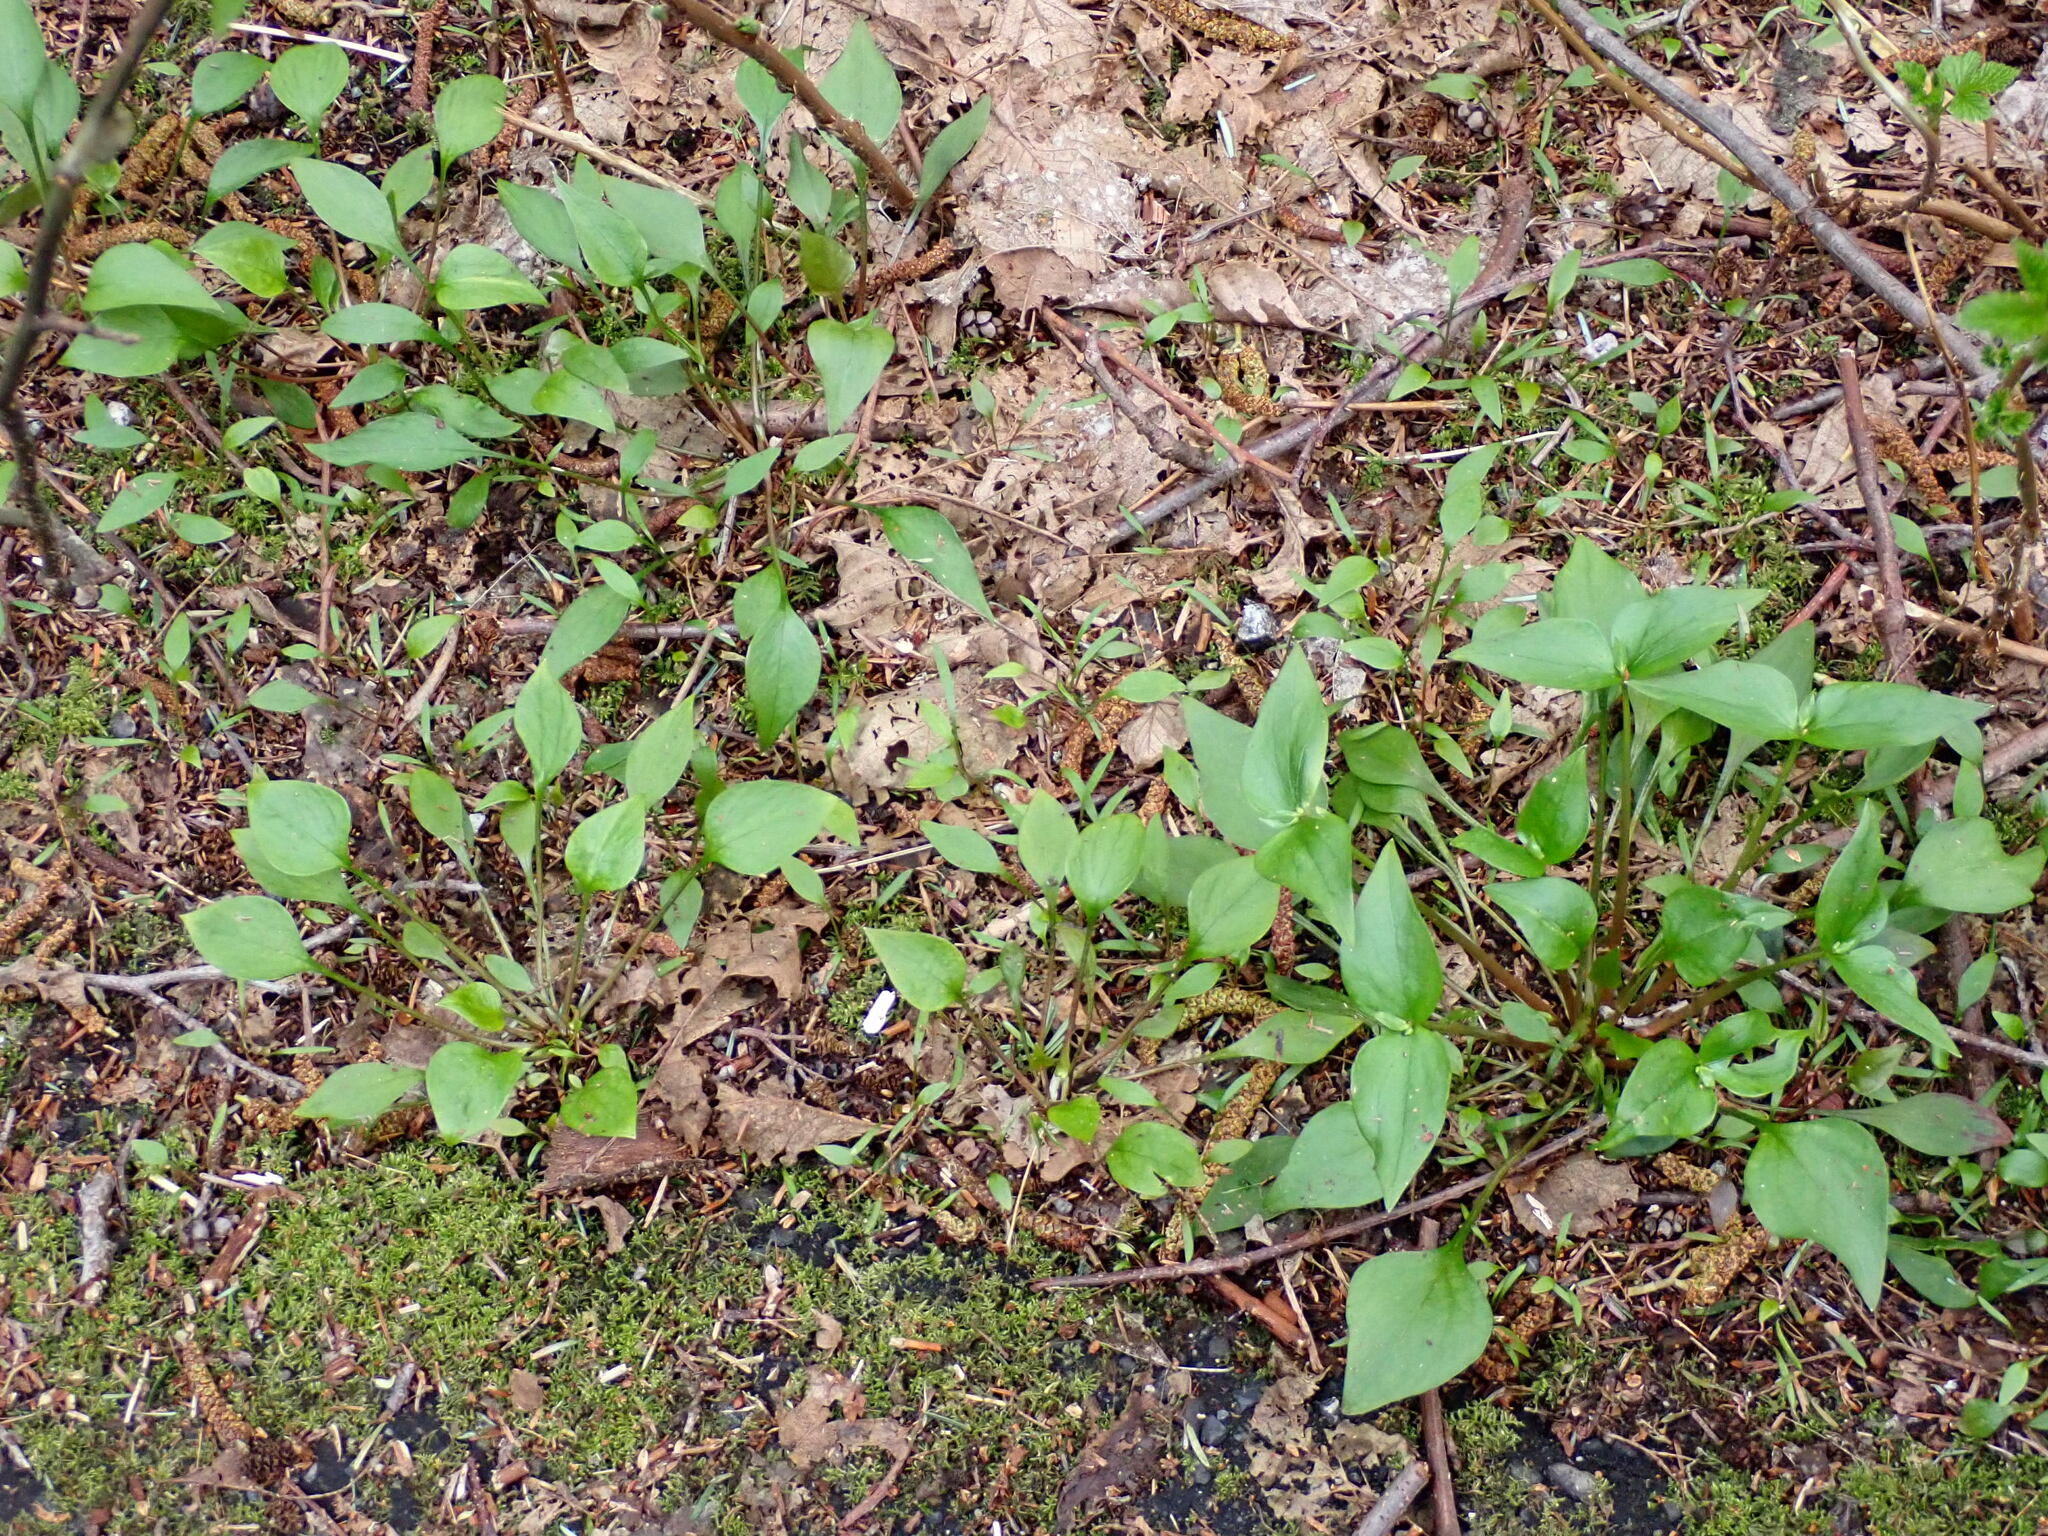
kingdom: Plantae
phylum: Tracheophyta
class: Magnoliopsida
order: Caryophyllales
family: Montiaceae
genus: Claytonia
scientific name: Claytonia sibirica
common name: Pink purslane
